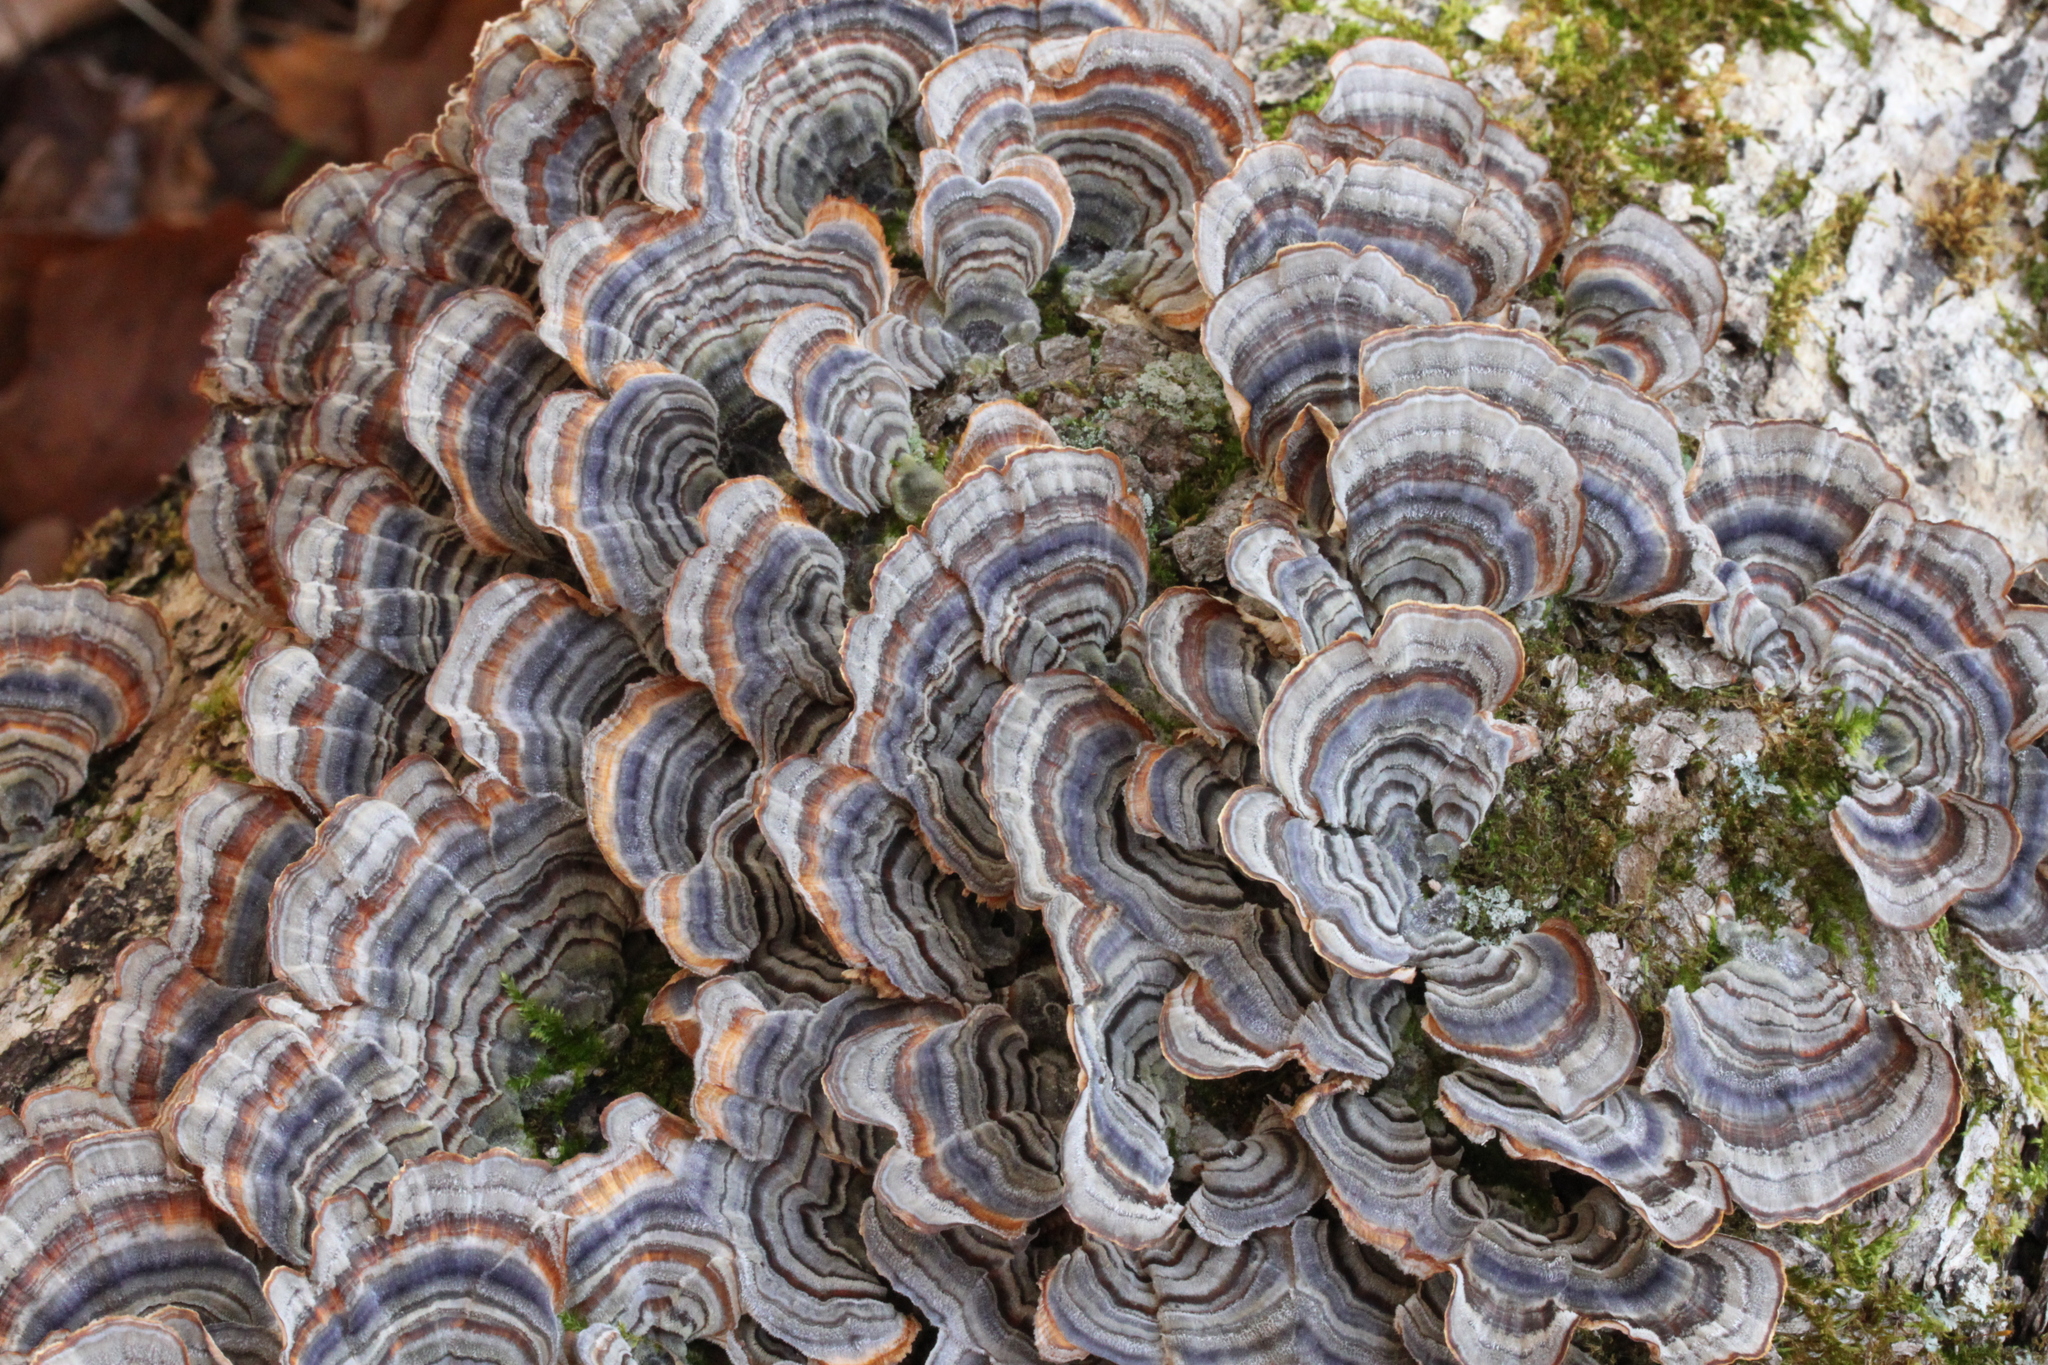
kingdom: Fungi
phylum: Basidiomycota
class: Agaricomycetes
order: Polyporales
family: Polyporaceae
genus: Trametes
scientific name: Trametes versicolor
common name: Turkeytail
